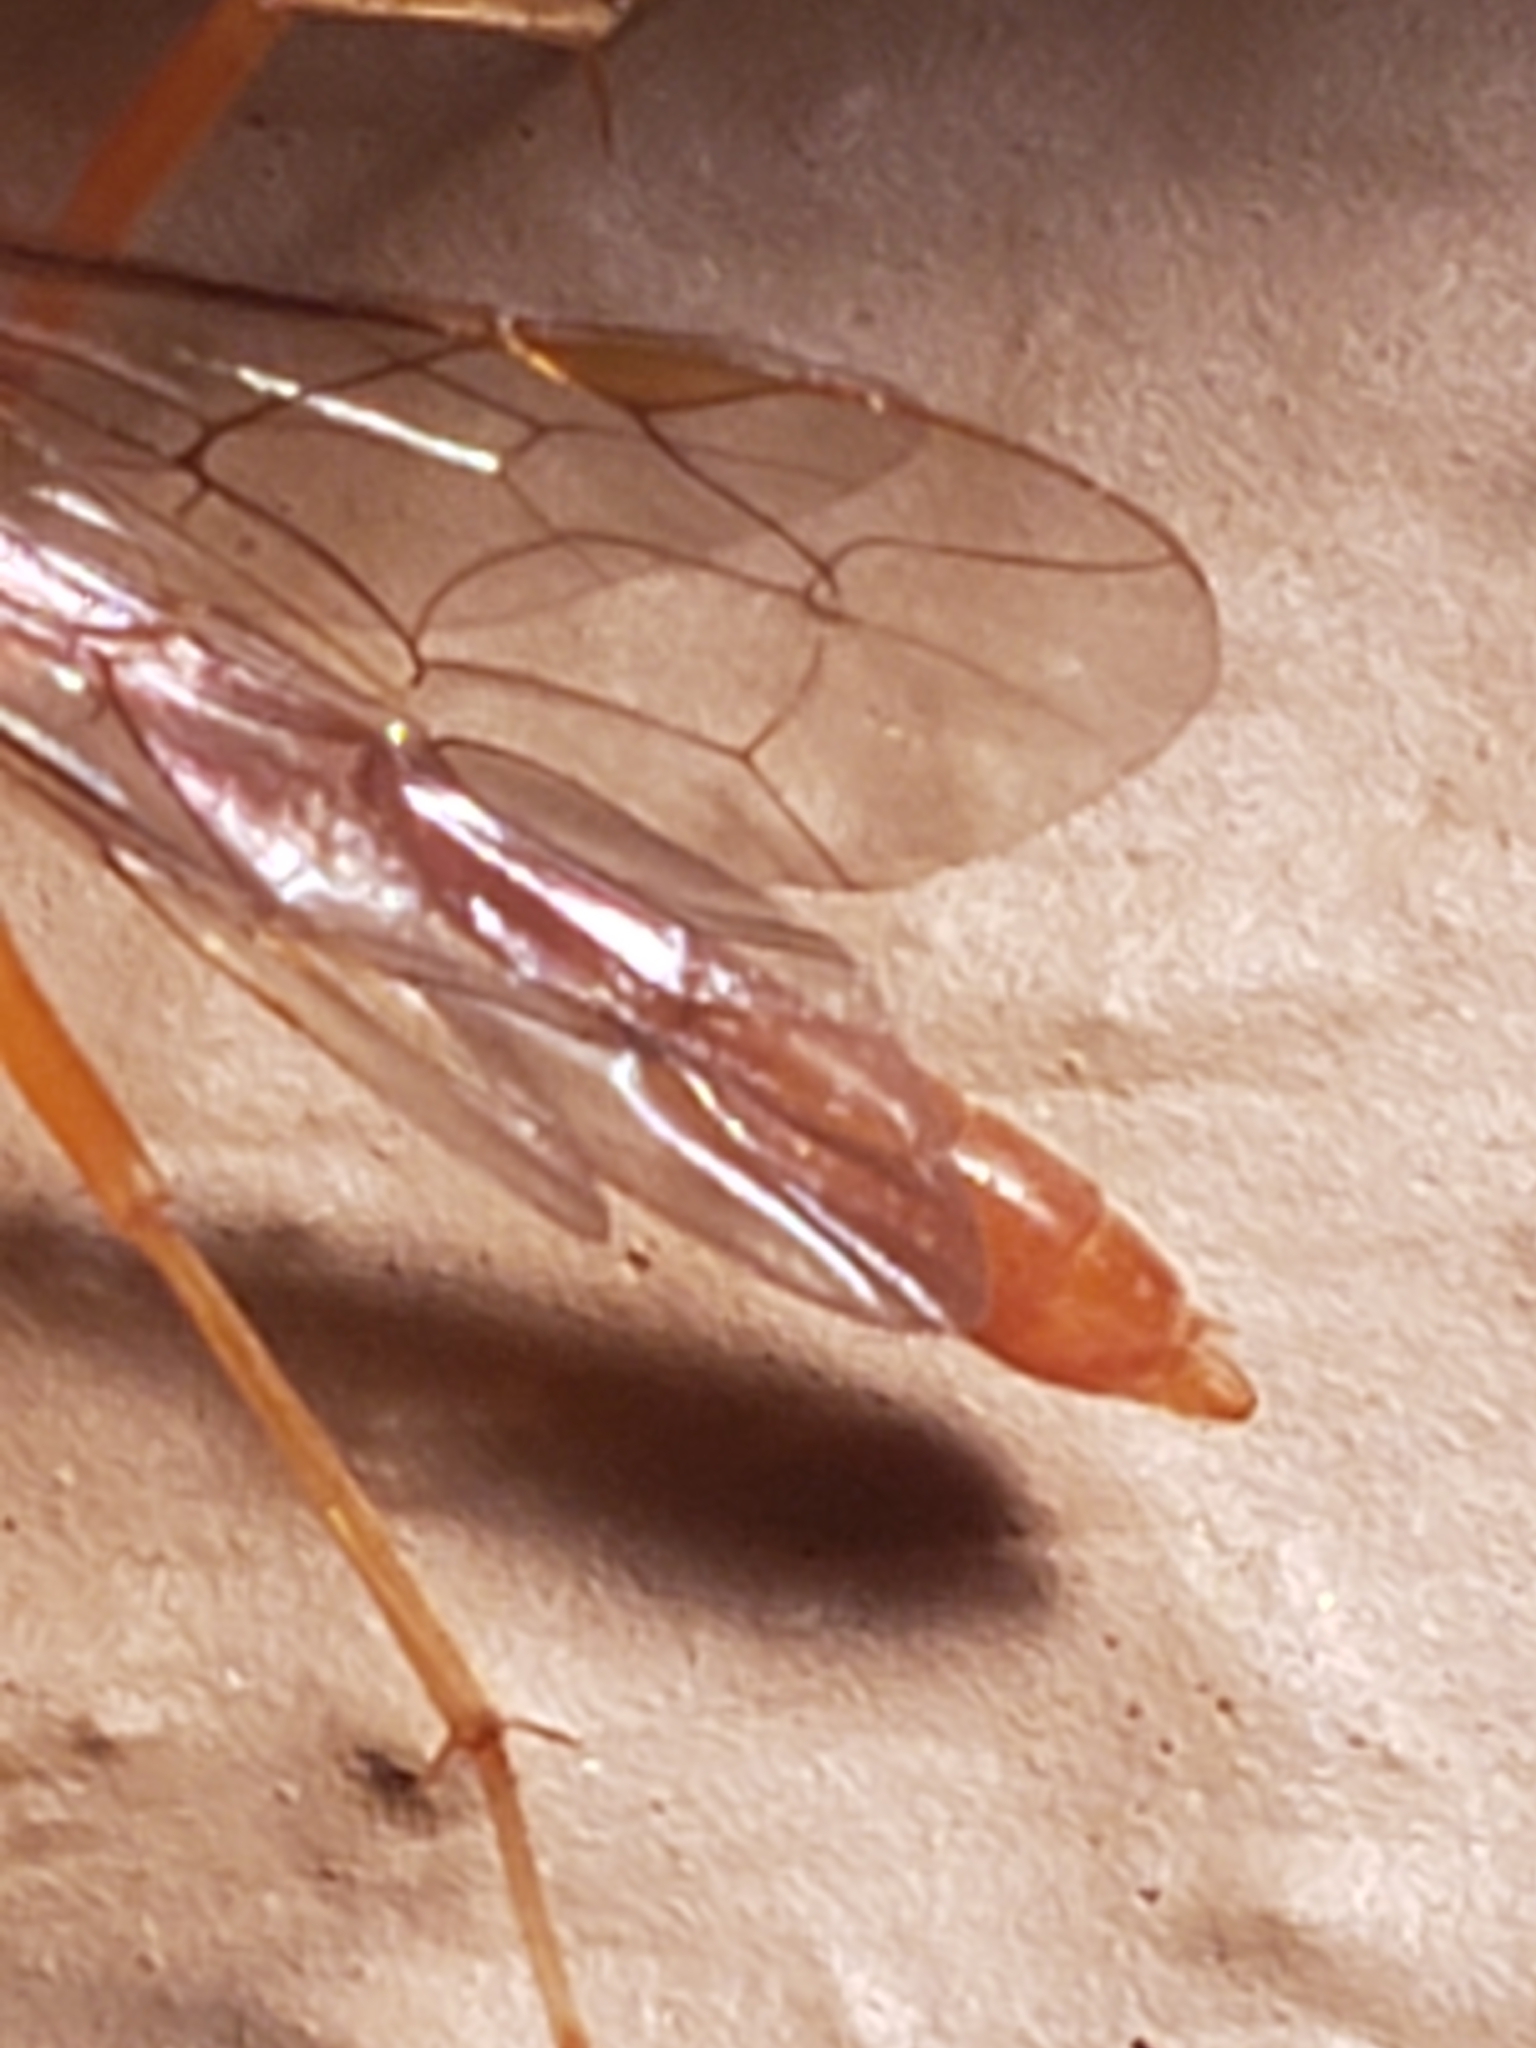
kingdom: Animalia
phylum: Arthropoda
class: Insecta
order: Hymenoptera
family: Ichneumonidae
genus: Netelia
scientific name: Netelia
